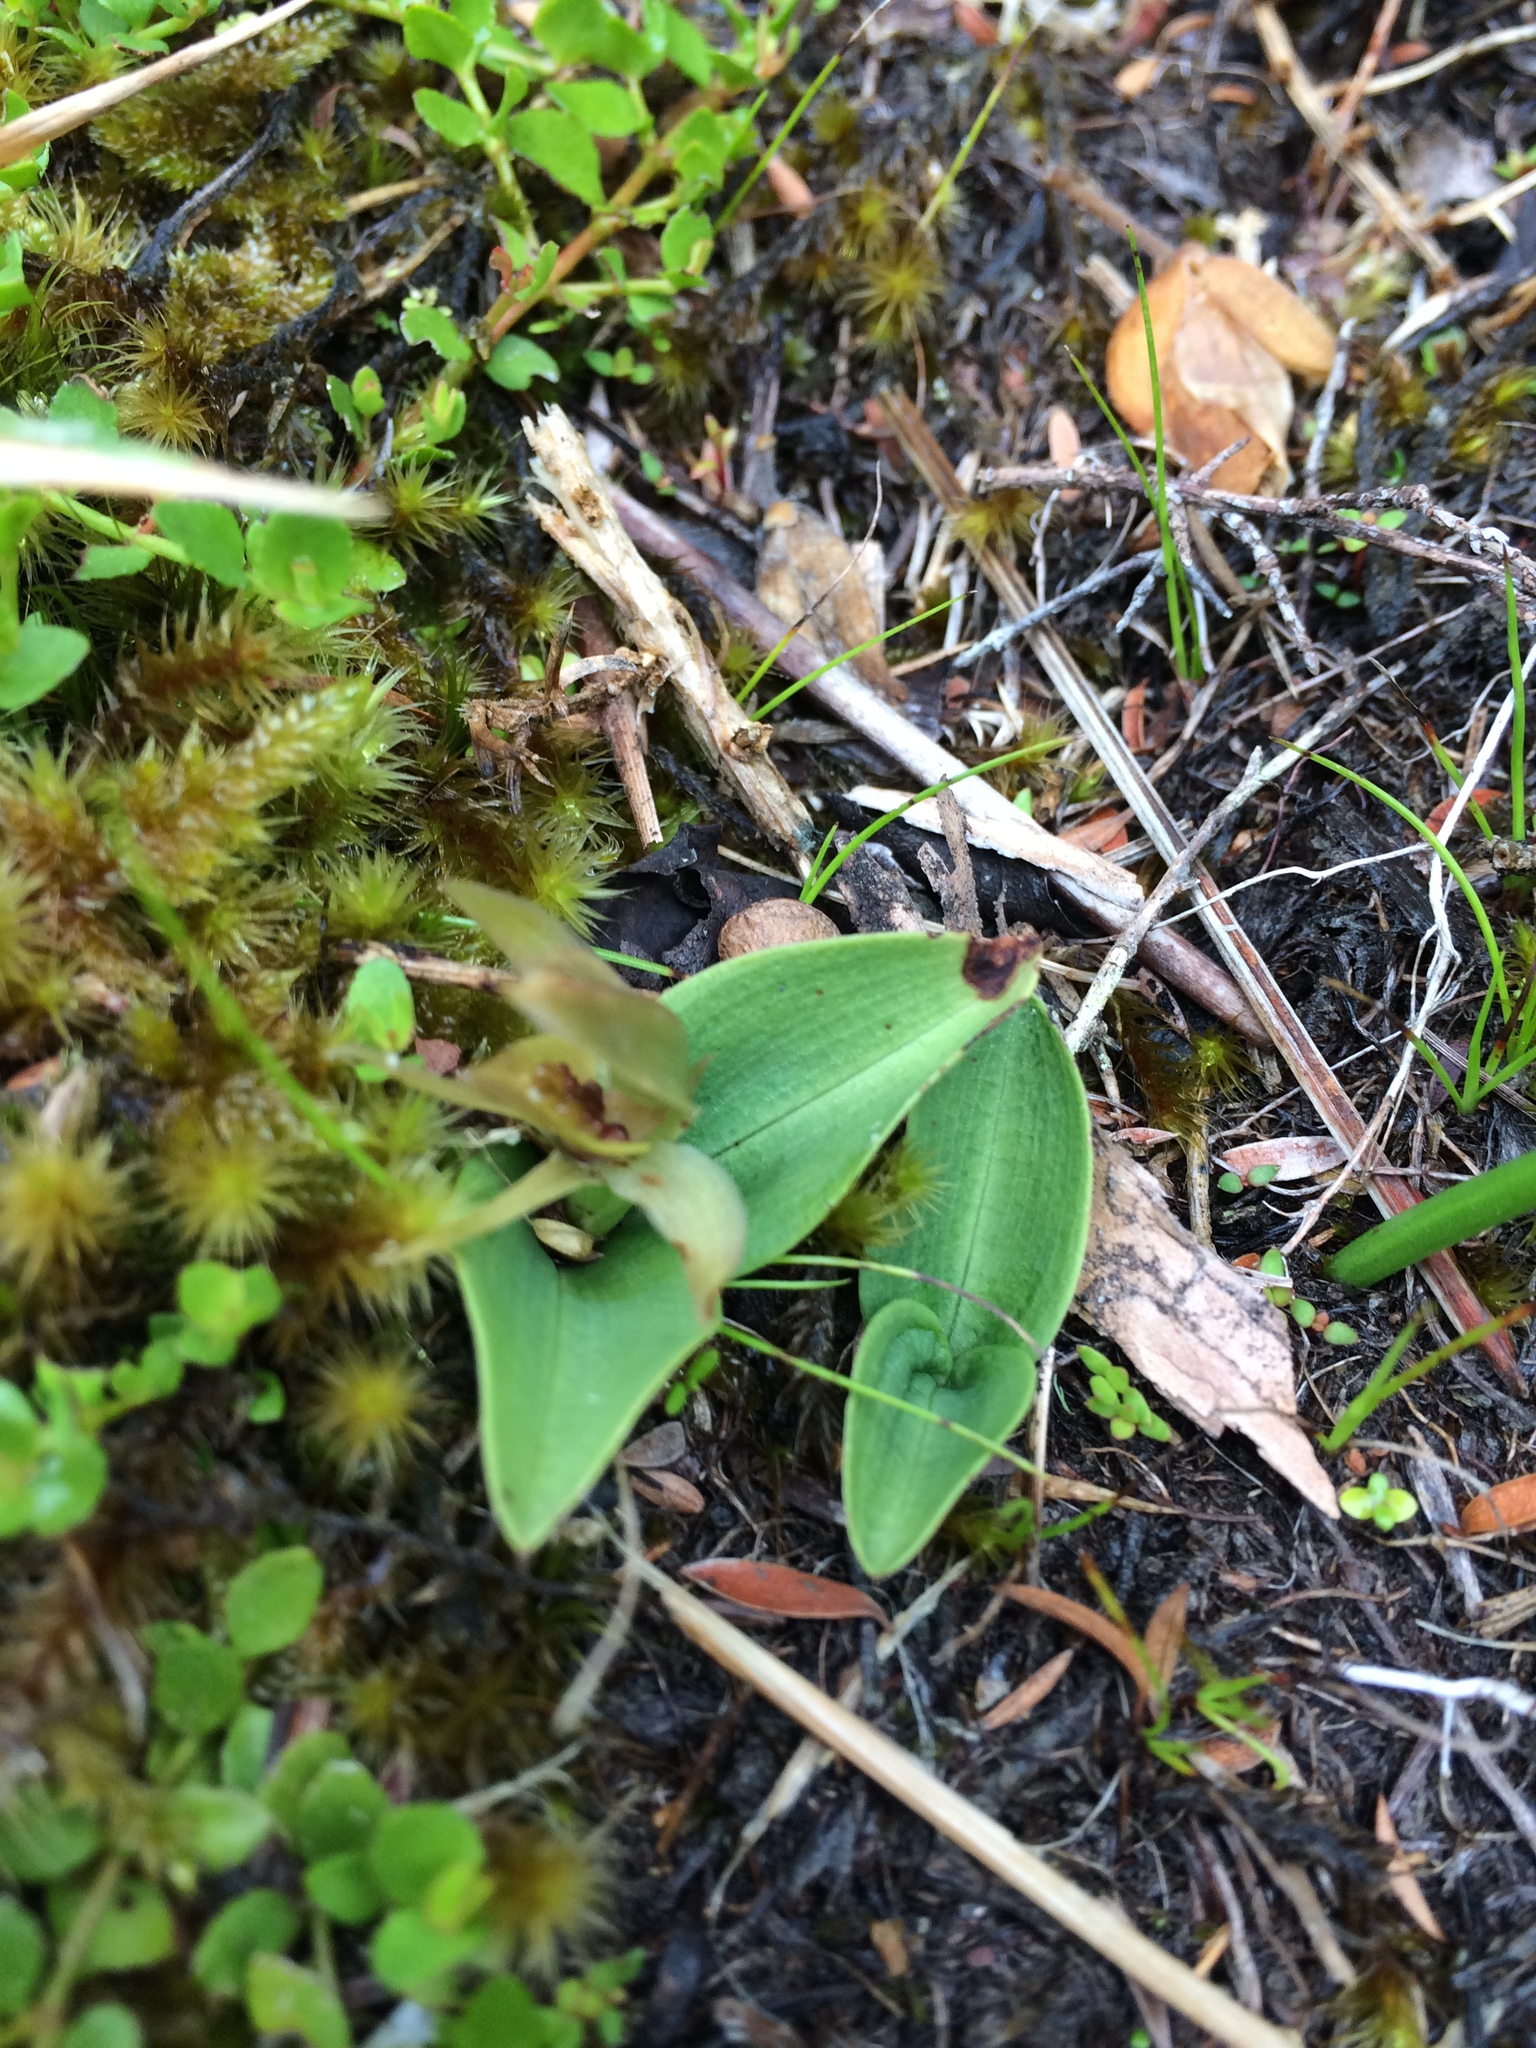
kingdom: Plantae
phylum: Tracheophyta
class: Liliopsida
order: Asparagales
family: Orchidaceae
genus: Chiloglottis
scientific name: Chiloglottis cornuta
